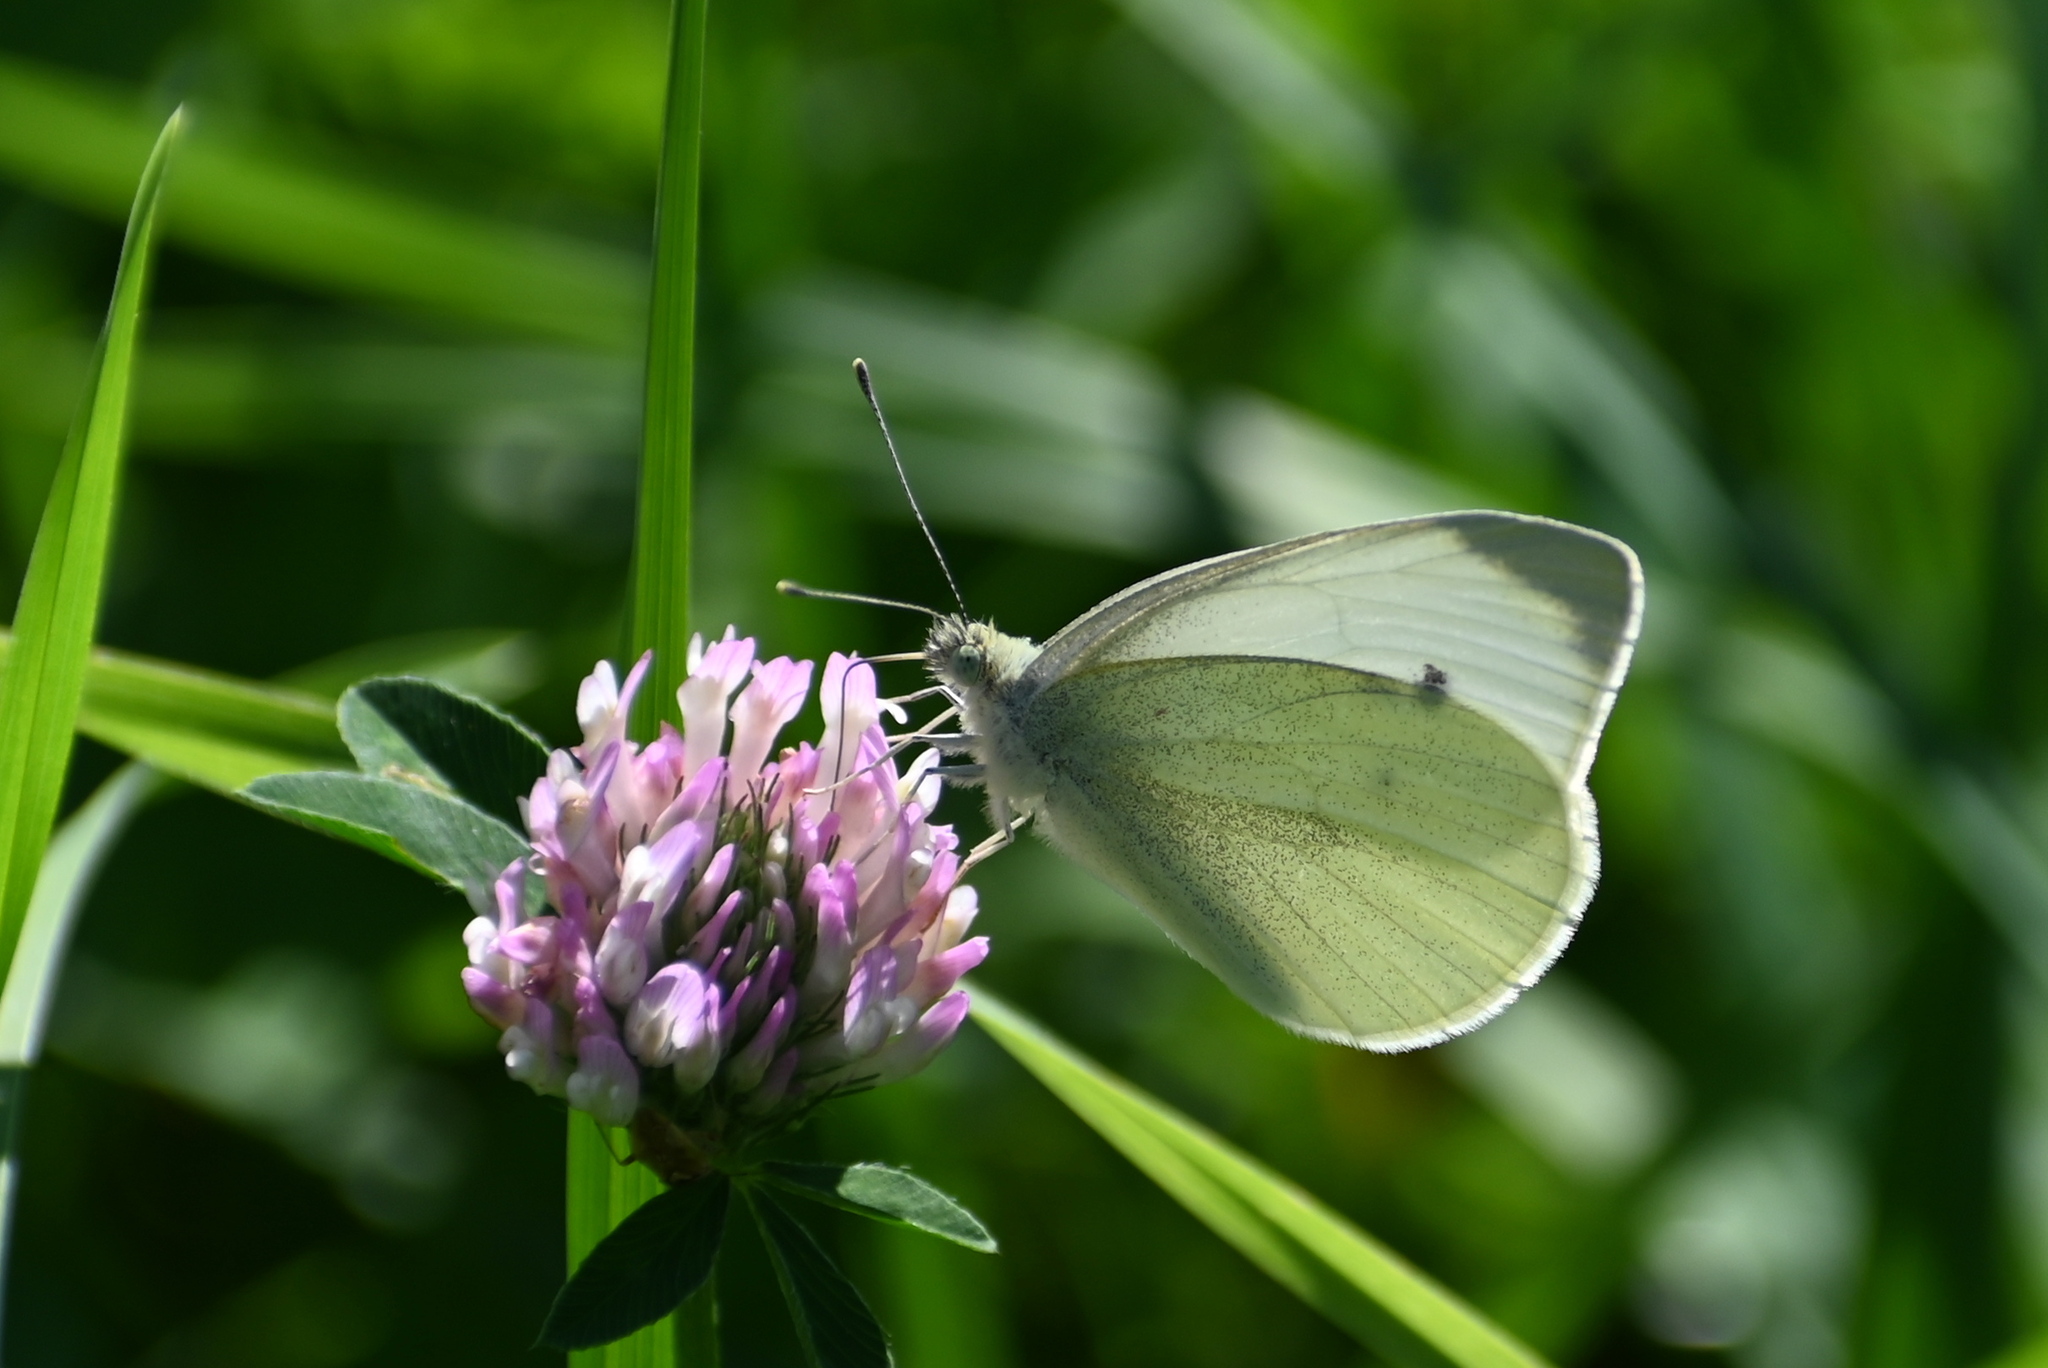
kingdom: Animalia
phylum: Arthropoda
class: Insecta
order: Lepidoptera
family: Pieridae
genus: Pieris
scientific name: Pieris rapae
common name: Small white
